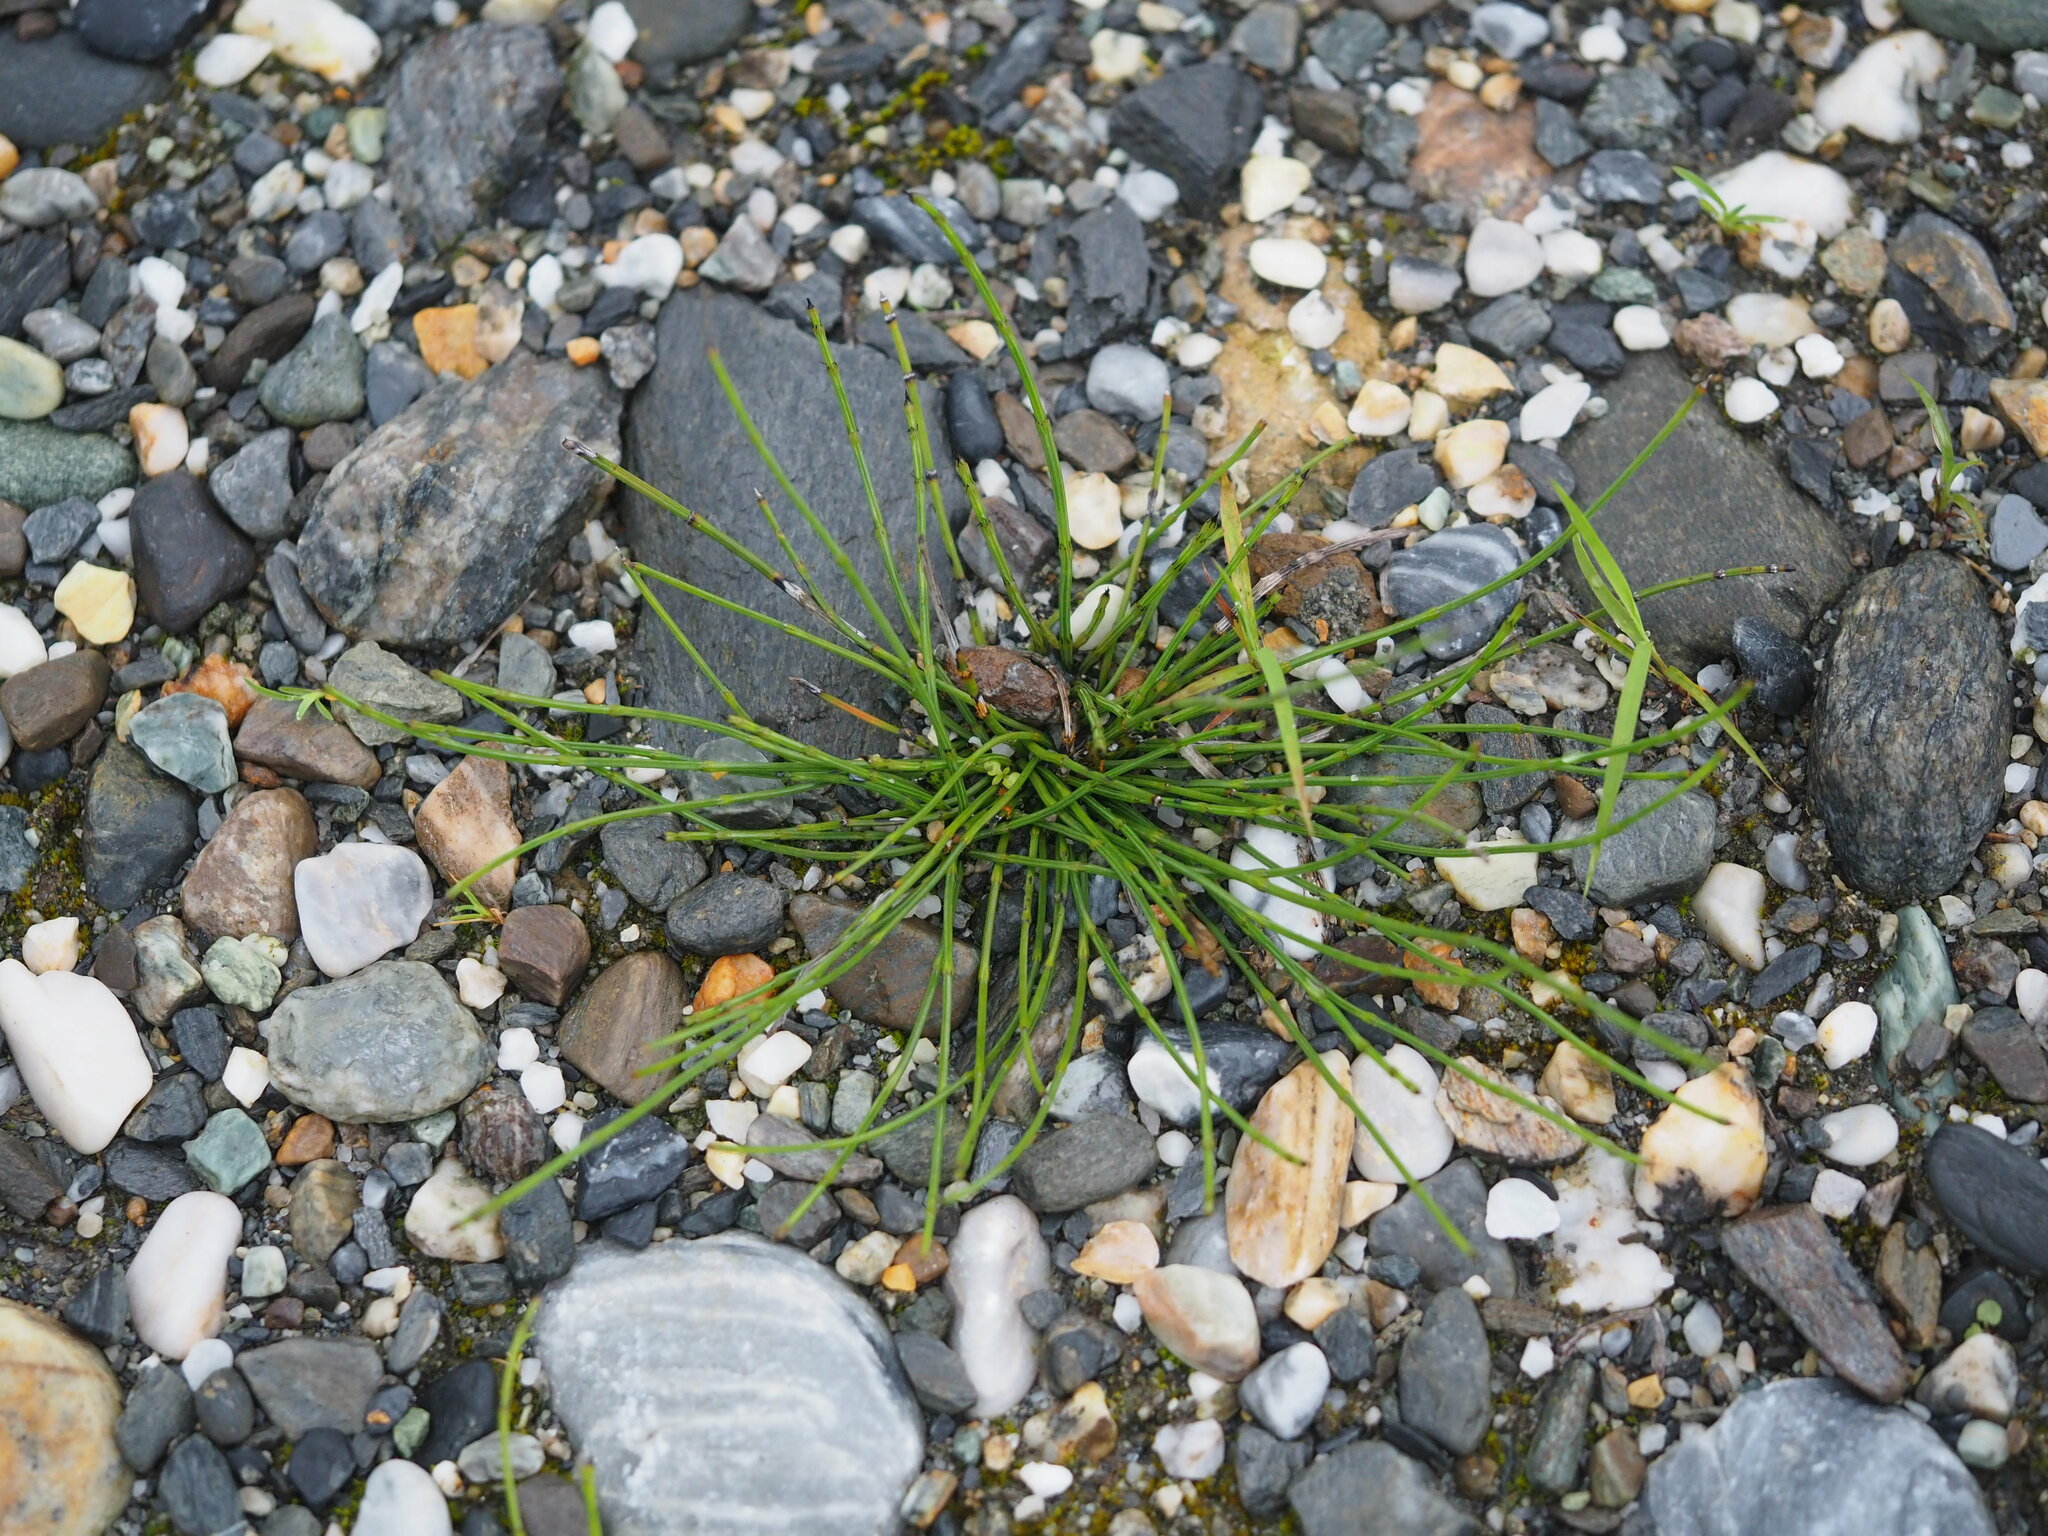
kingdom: Plantae
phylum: Tracheophyta
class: Polypodiopsida
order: Equisetales
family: Equisetaceae
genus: Equisetum
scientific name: Equisetum ramosissimum
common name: Branched horsetail
